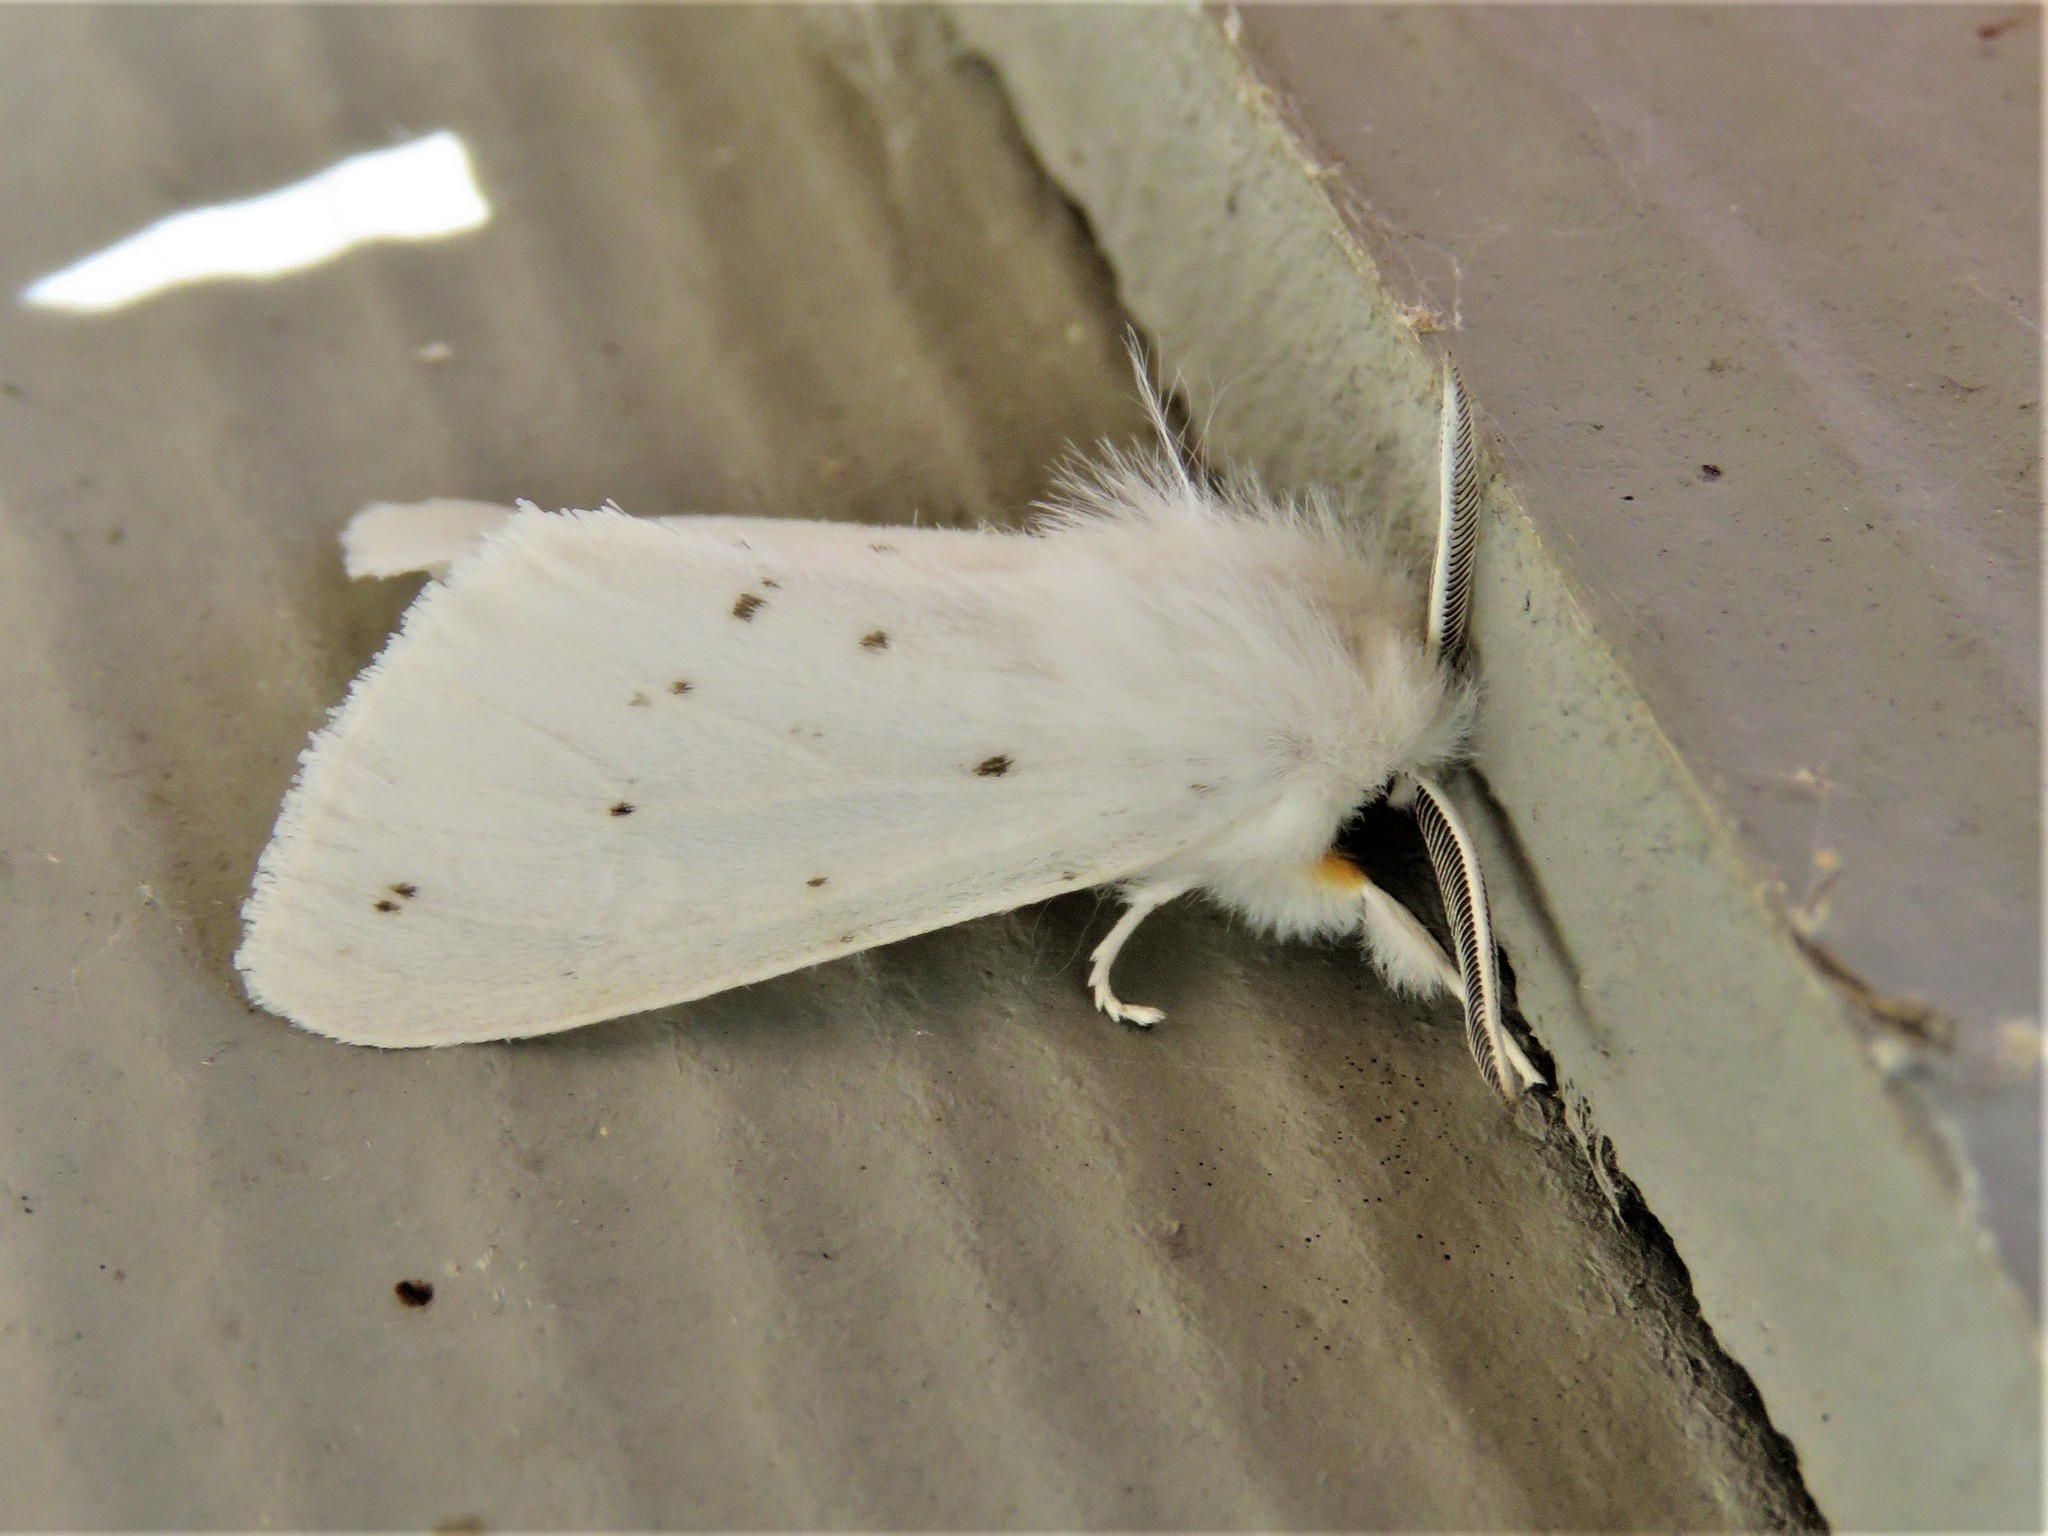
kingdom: Animalia
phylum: Arthropoda
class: Insecta
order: Lepidoptera
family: Erebidae
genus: Spilosoma
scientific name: Spilosoma virginica
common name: Virginia tiger moth
